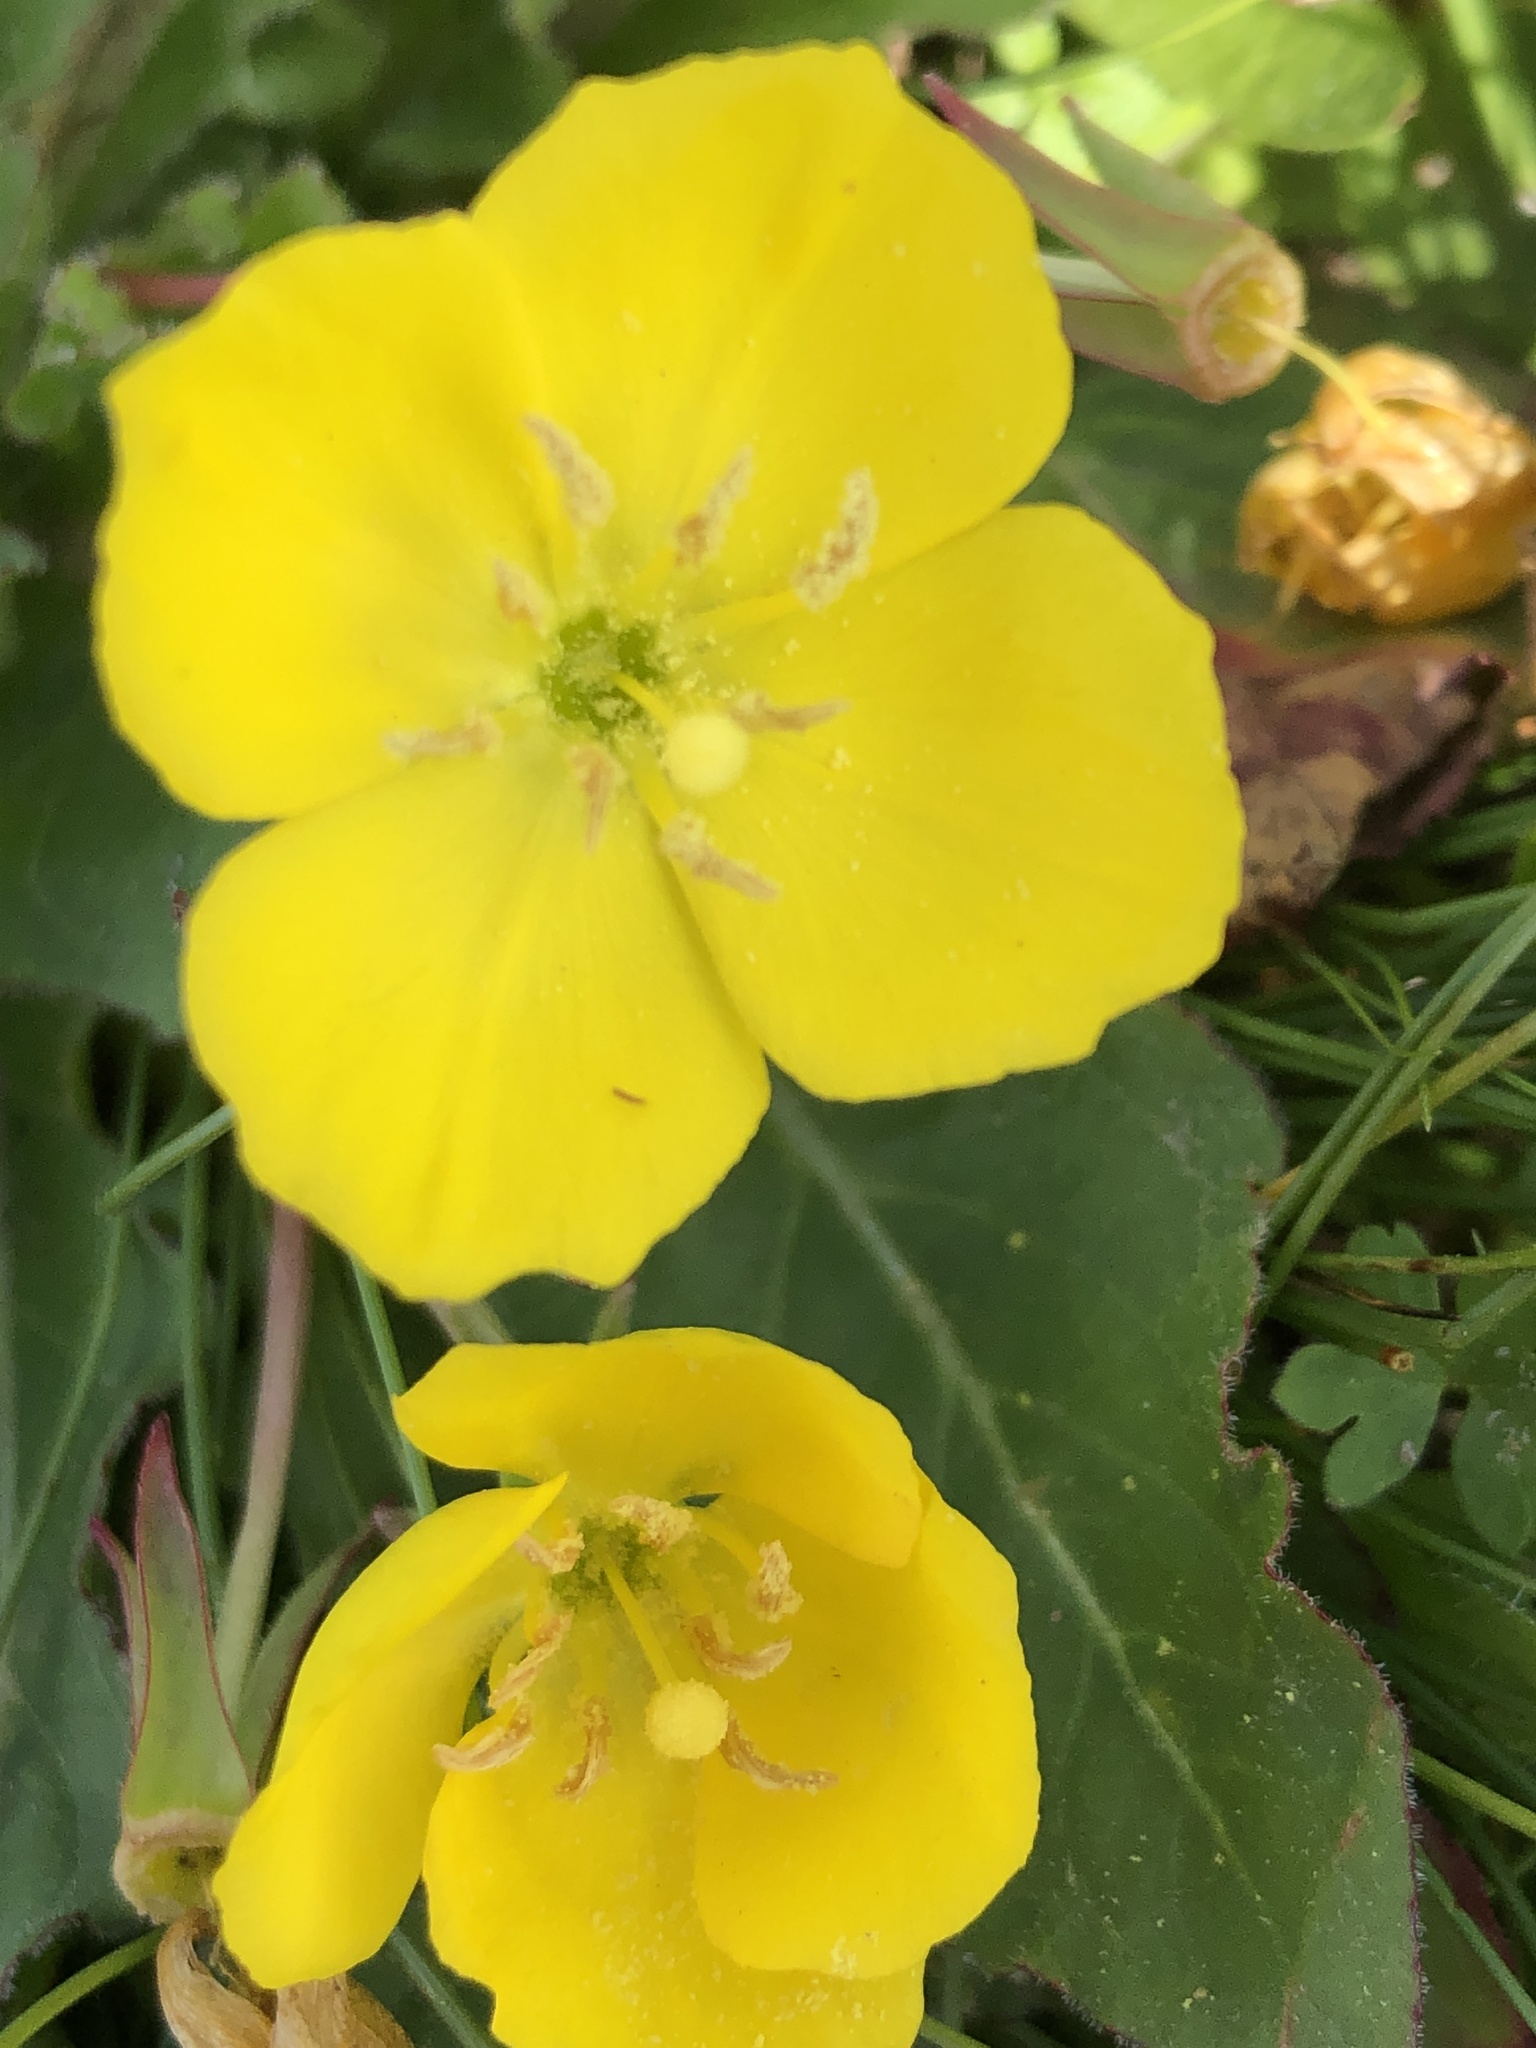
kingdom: Plantae
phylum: Tracheophyta
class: Magnoliopsida
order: Myrtales
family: Onagraceae
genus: Taraxia
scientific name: Taraxia ovata
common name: Goldeneggs
